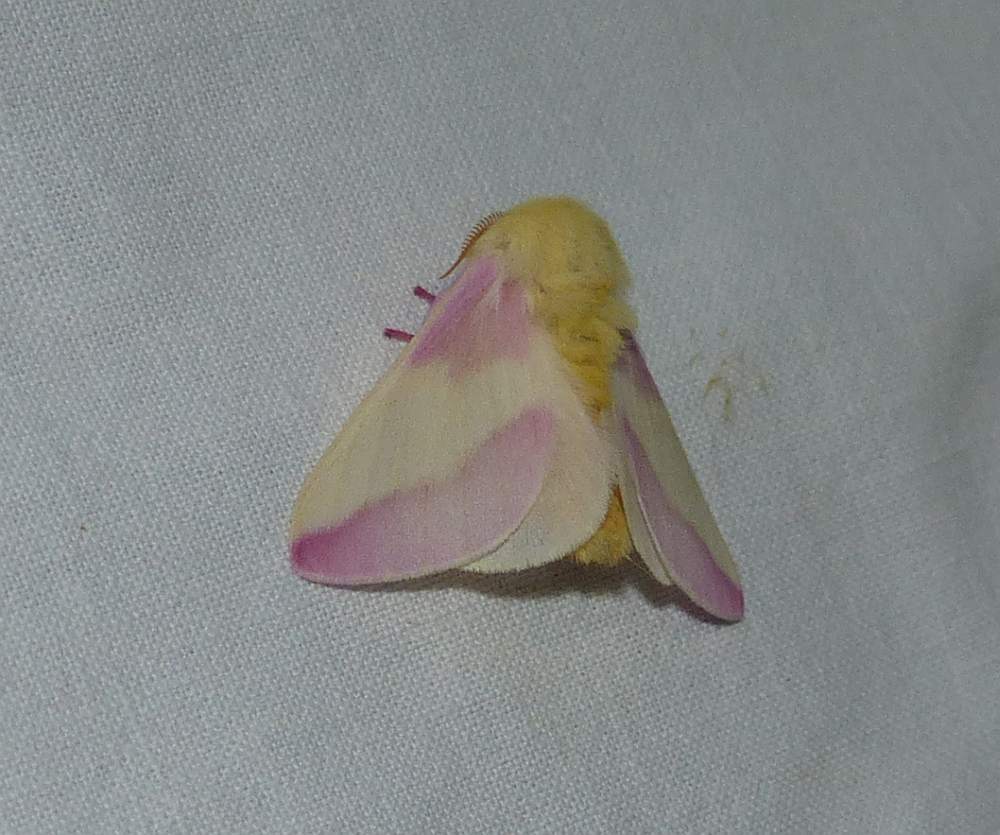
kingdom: Animalia
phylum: Arthropoda
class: Insecta
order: Lepidoptera
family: Saturniidae
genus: Dryocampa
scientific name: Dryocampa rubicunda
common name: Rosy maple moth
